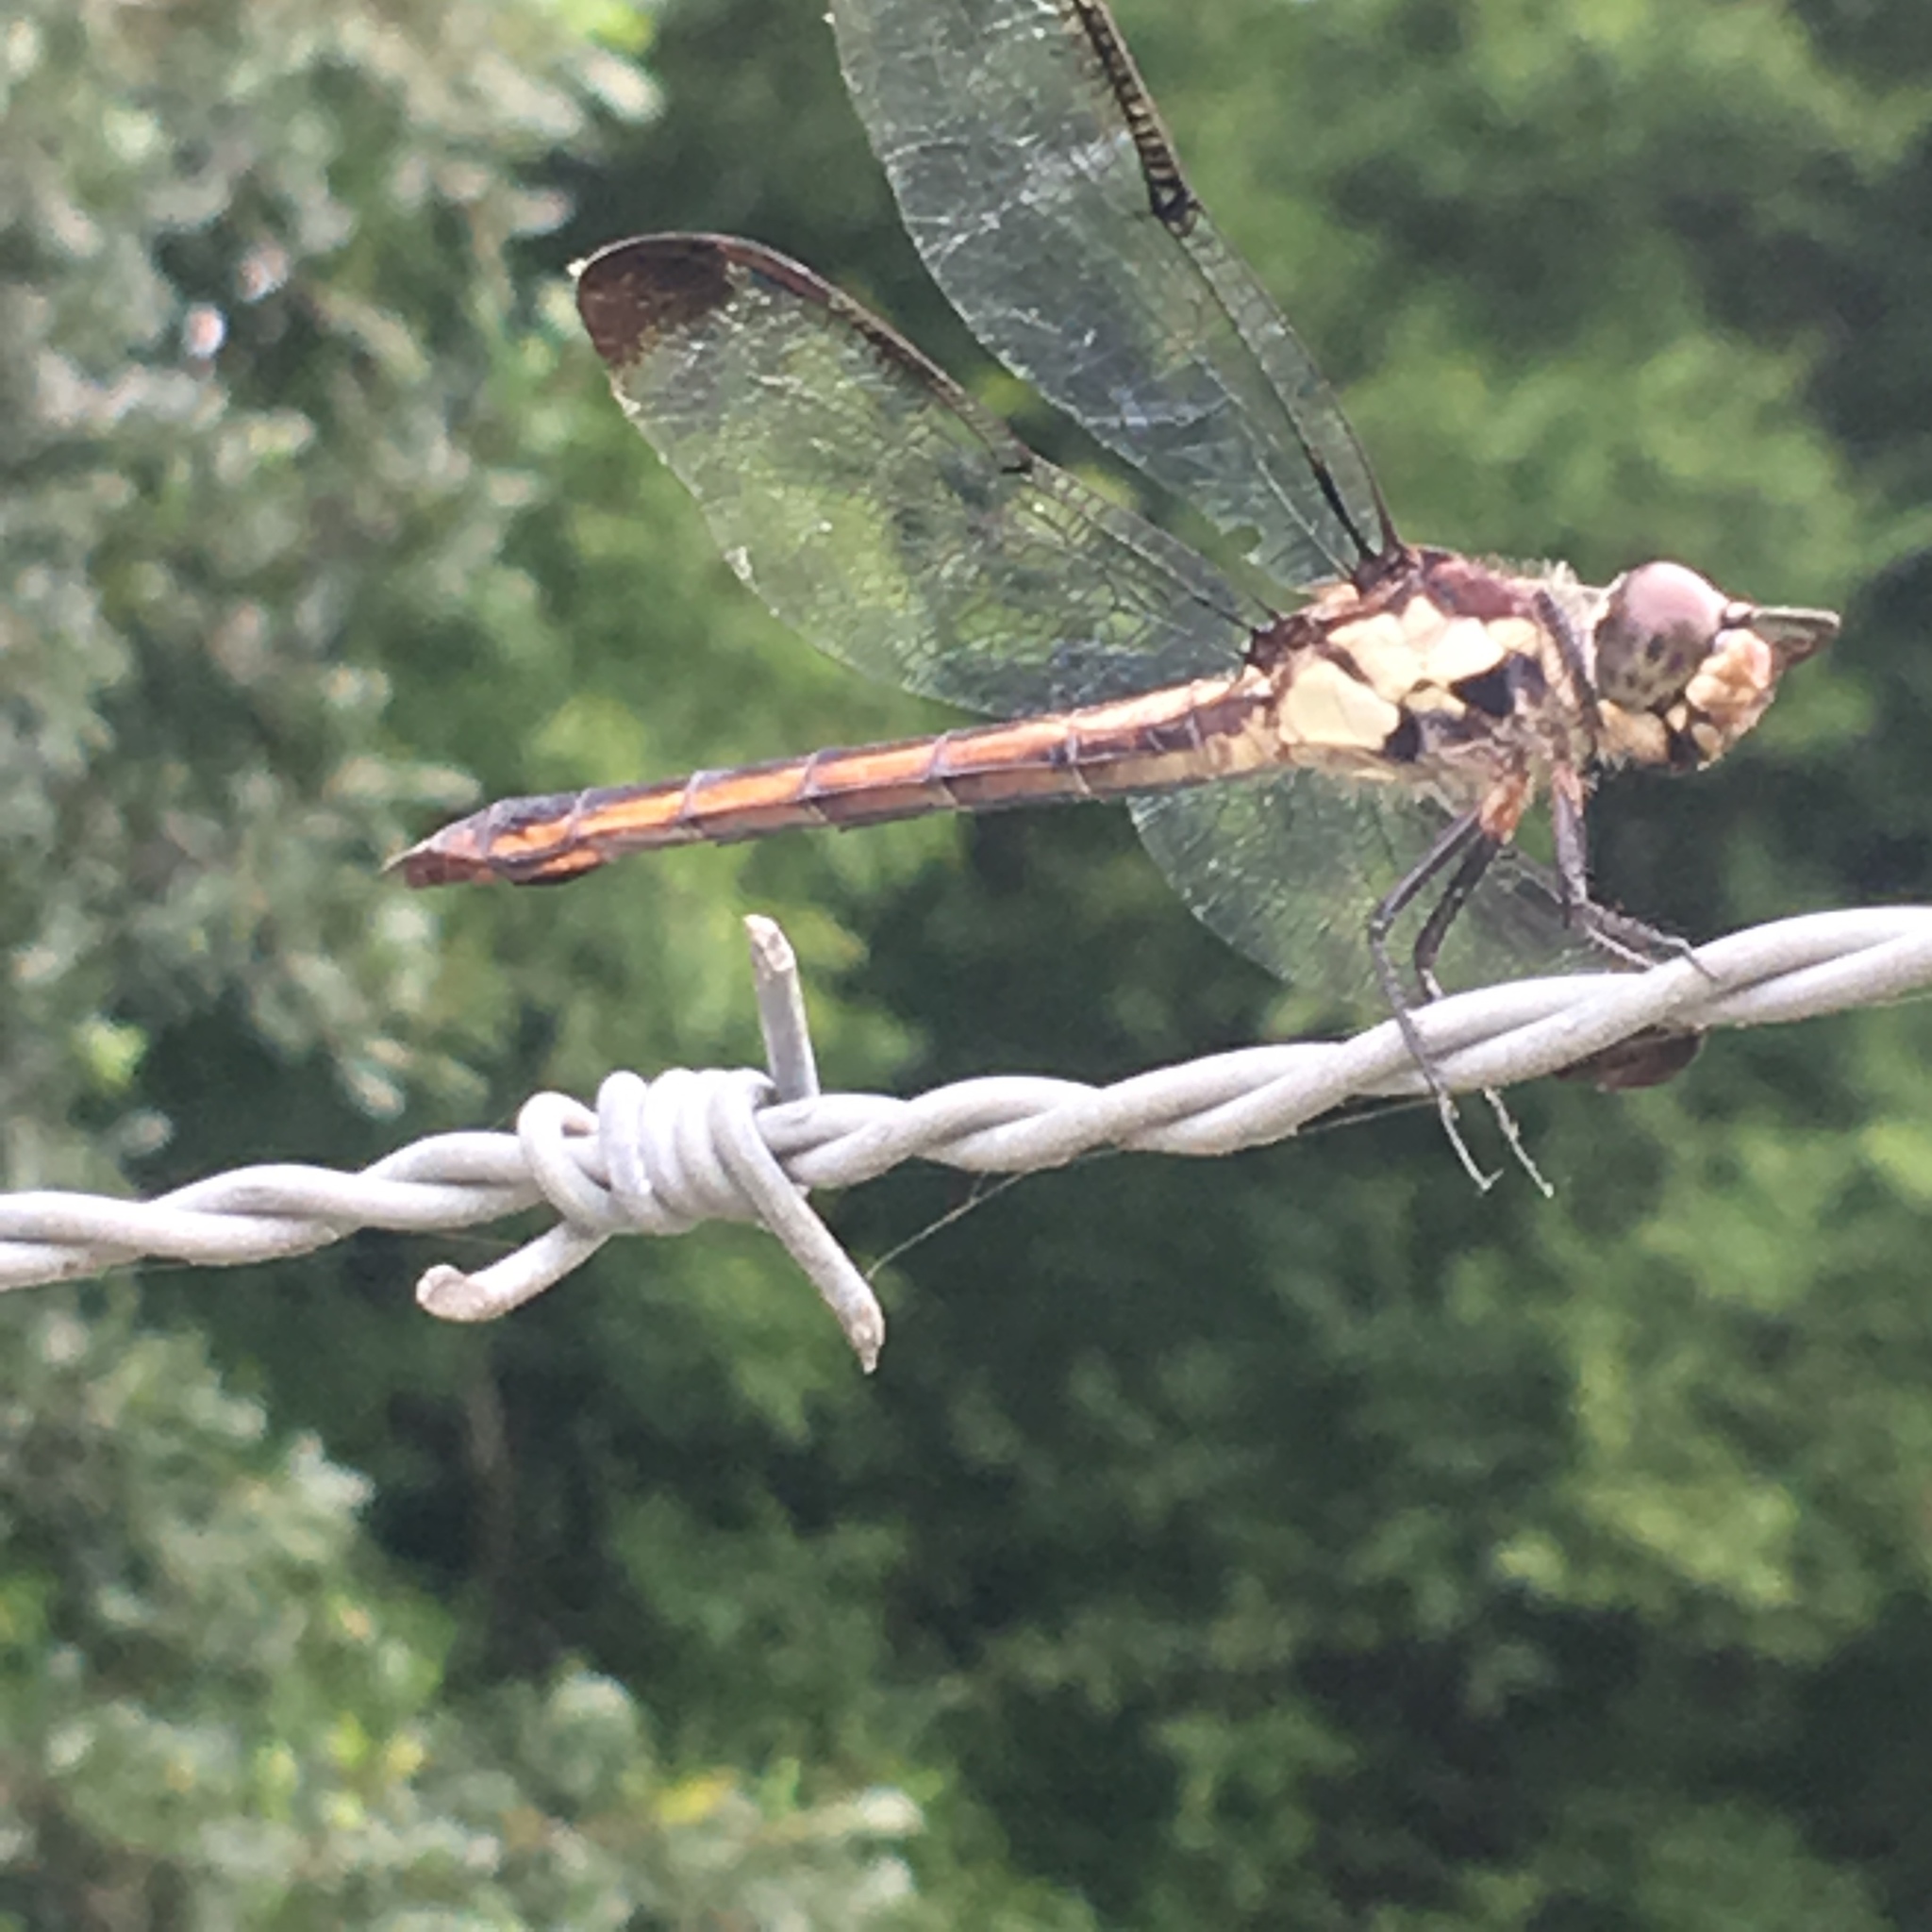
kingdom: Animalia
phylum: Arthropoda
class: Insecta
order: Odonata
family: Libellulidae
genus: Libellula
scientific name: Libellula incesta
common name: Slaty skimmer
